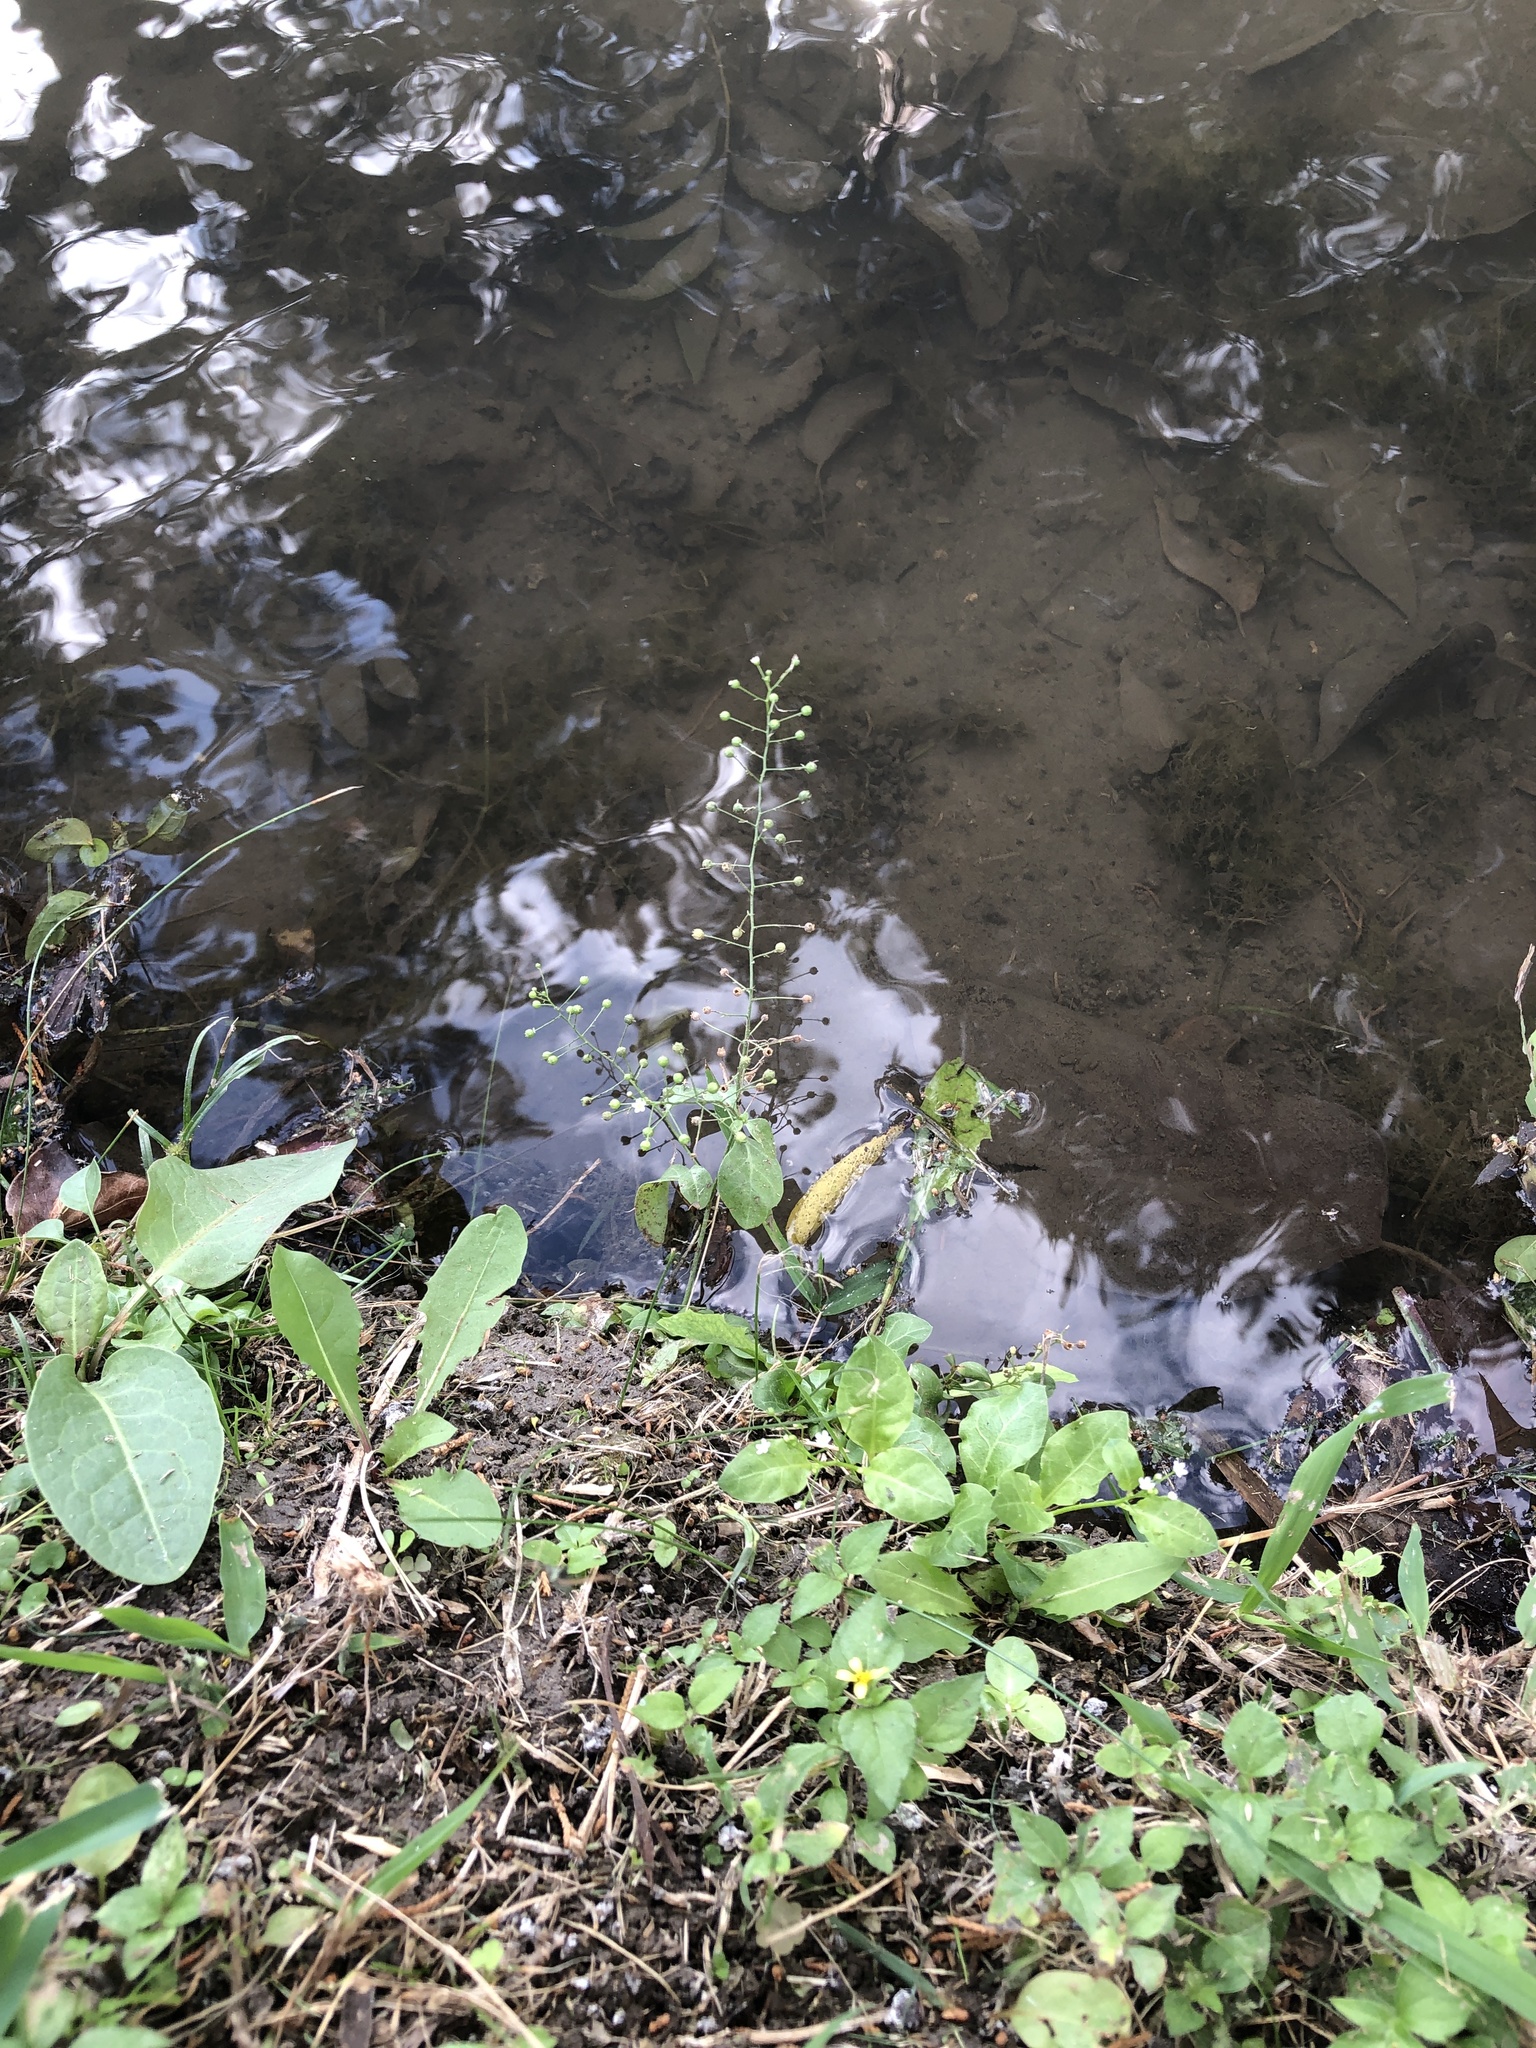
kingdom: Plantae
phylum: Tracheophyta
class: Magnoliopsida
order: Ericales
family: Primulaceae
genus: Samolus
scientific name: Samolus parviflorus
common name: False water pimpernel
